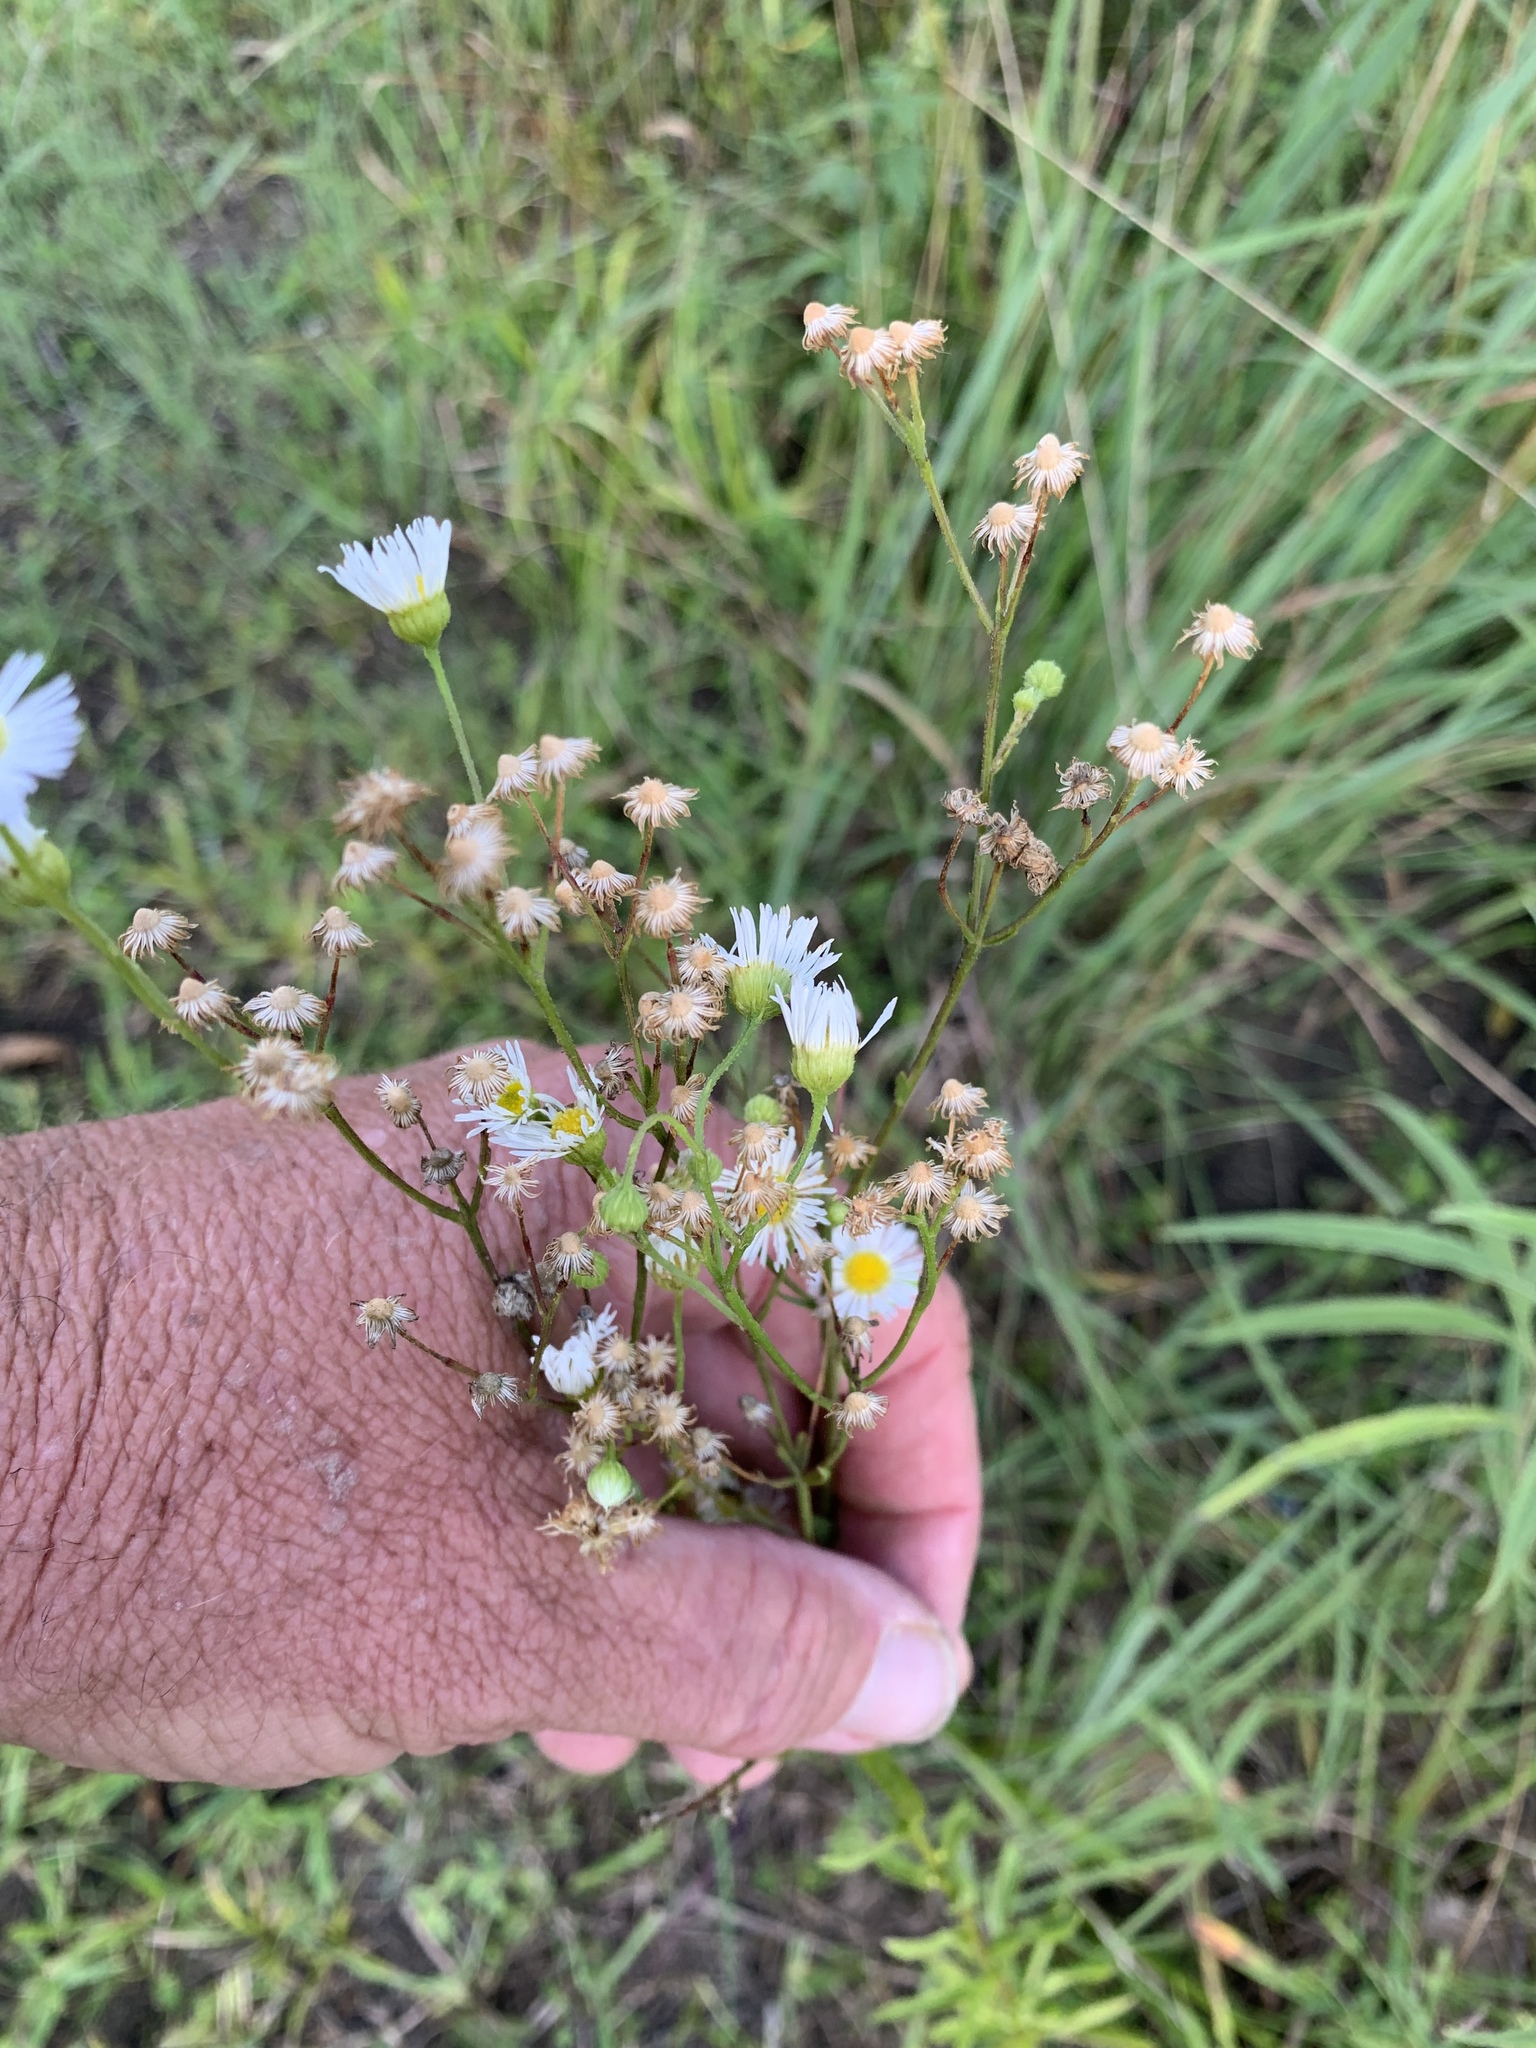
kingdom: Plantae
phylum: Tracheophyta
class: Magnoliopsida
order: Asterales
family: Asteraceae
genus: Erigeron
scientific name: Erigeron strigosus
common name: Common eastern fleabane
